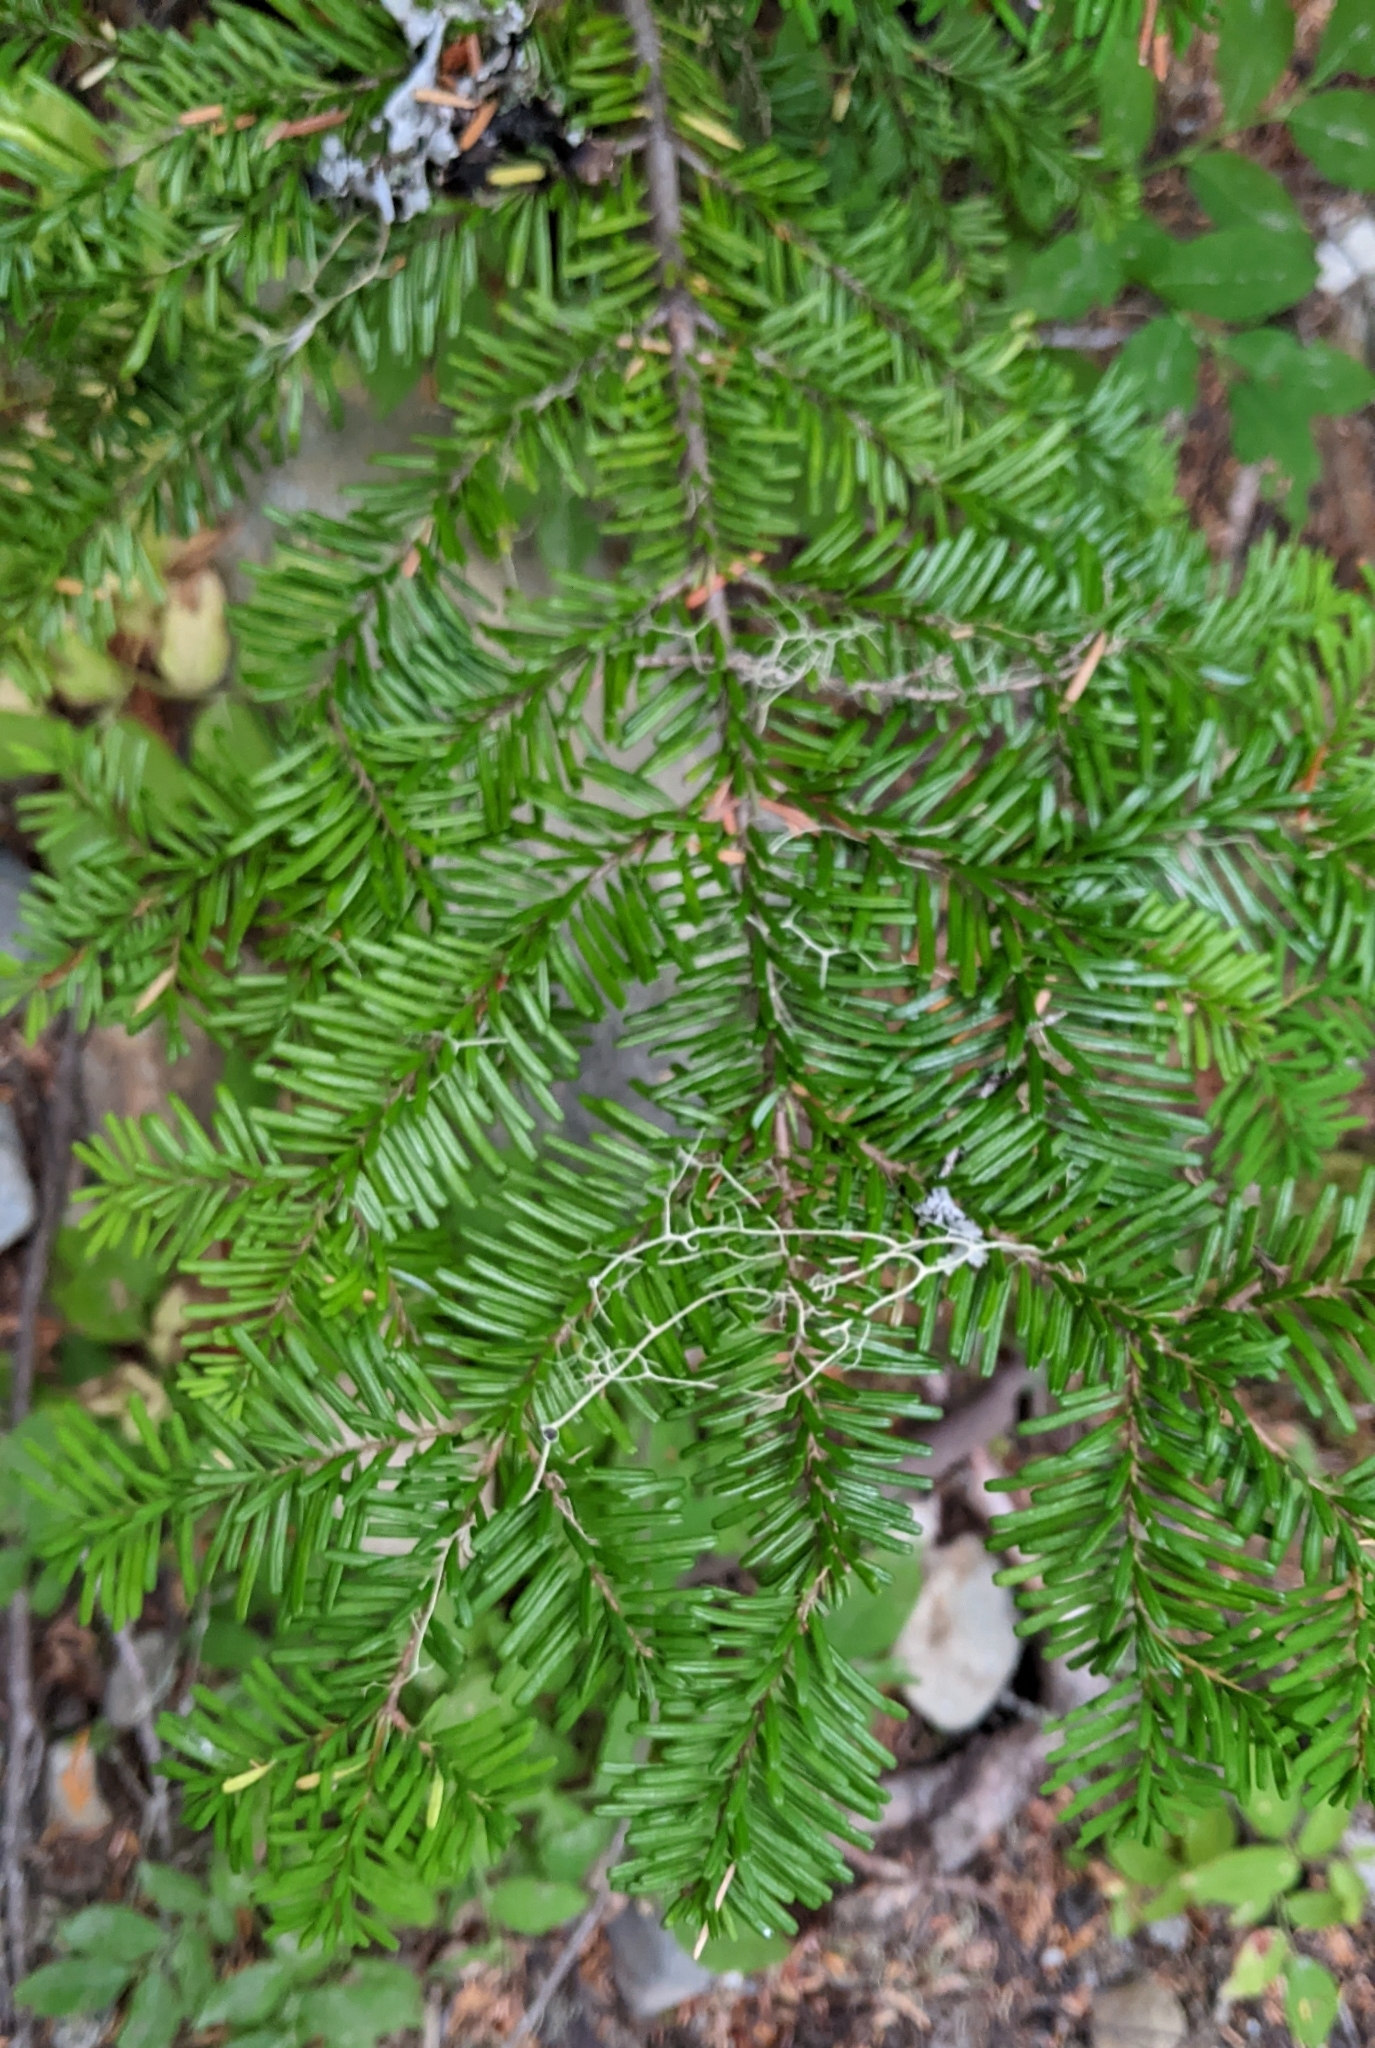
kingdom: Plantae
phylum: Tracheophyta
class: Pinopsida
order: Pinales
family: Pinaceae
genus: Abies
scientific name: Abies amabilis
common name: Pacific silver fir
